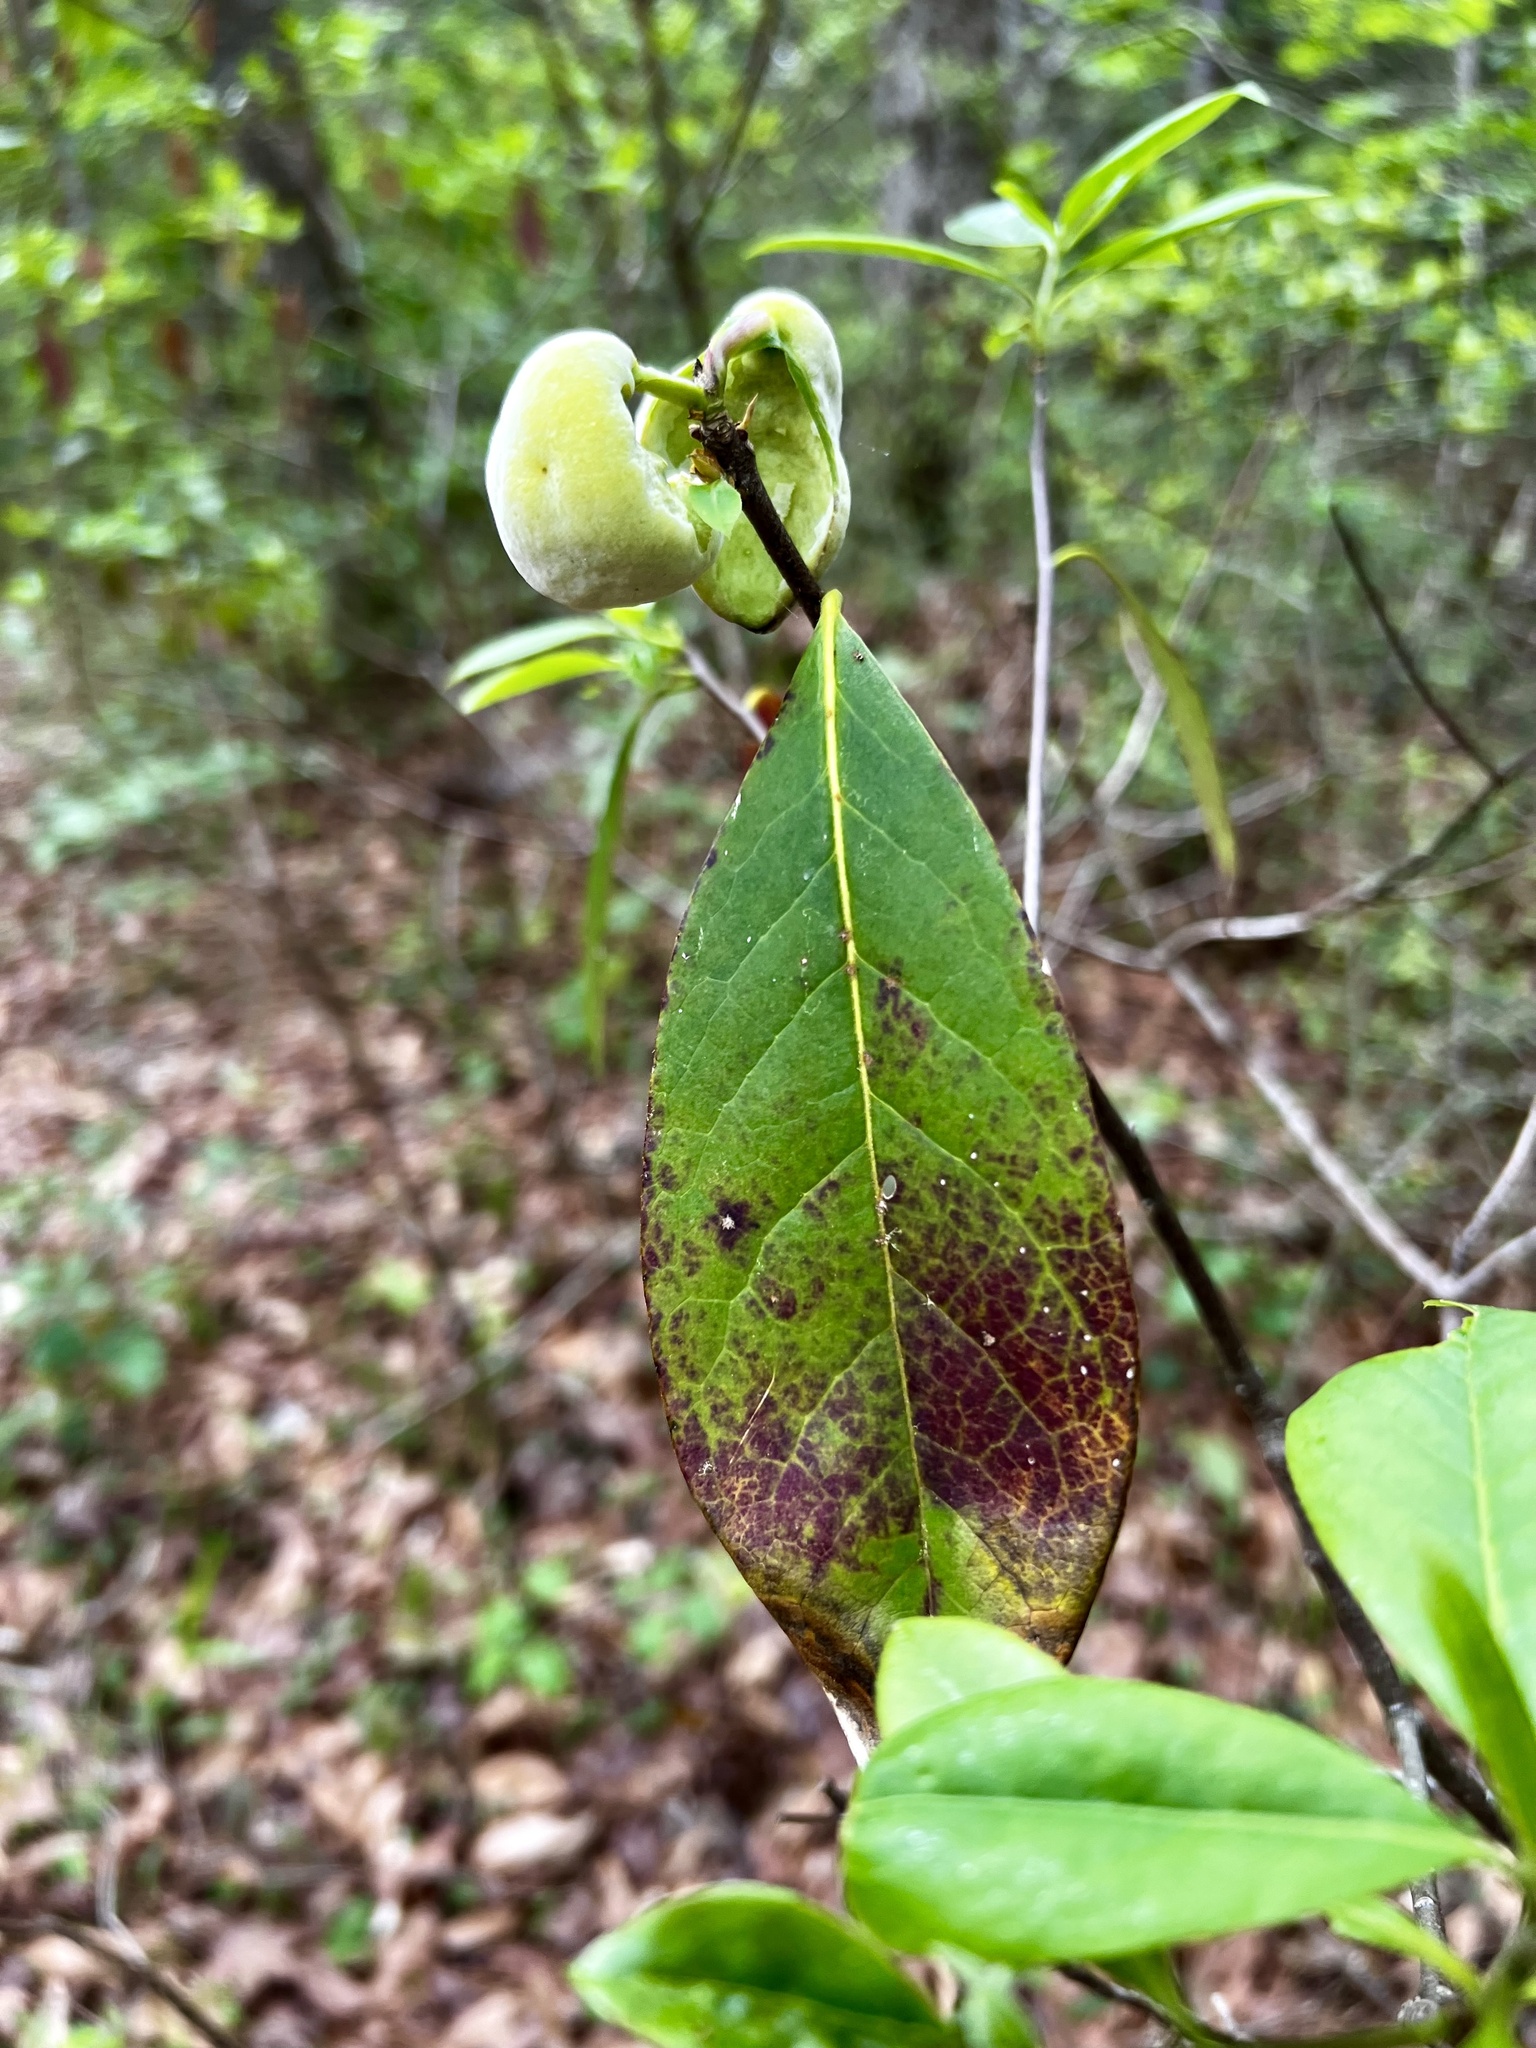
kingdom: Fungi
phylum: Basidiomycota
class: Exobasidiomycetes
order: Exobasidiales
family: Exobasidiaceae
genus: Exobasidium
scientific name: Exobasidium symploci
